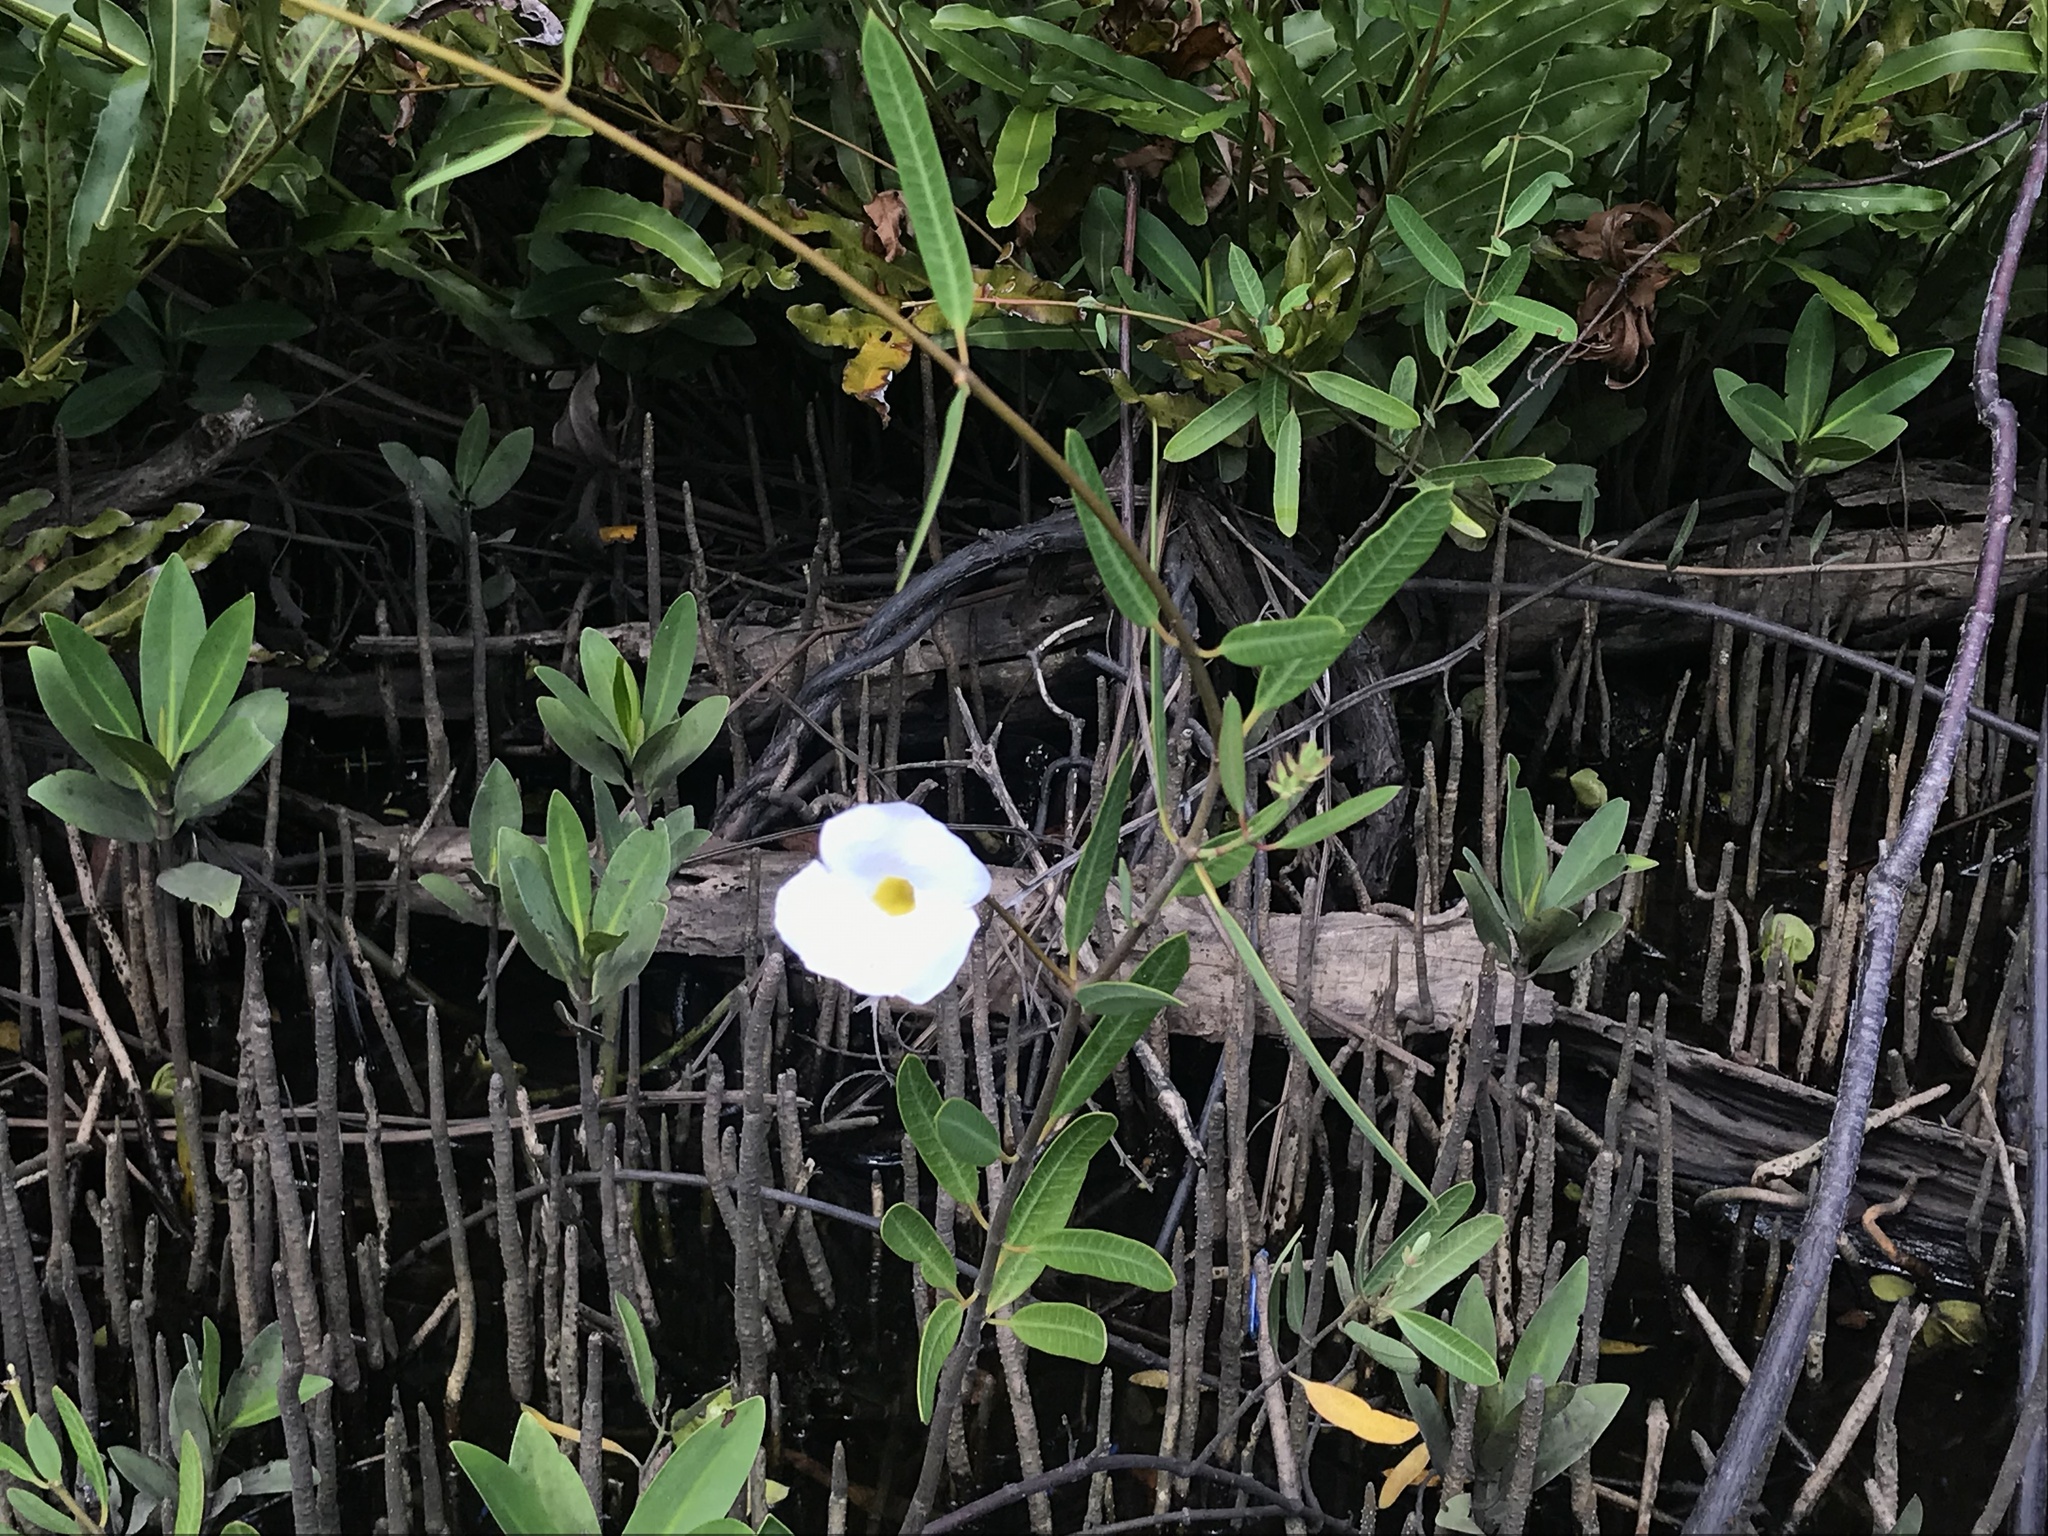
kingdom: Plantae
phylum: Tracheophyta
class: Magnoliopsida
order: Gentianales
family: Apocynaceae
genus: Rhabdadenia
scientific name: Rhabdadenia biflora
